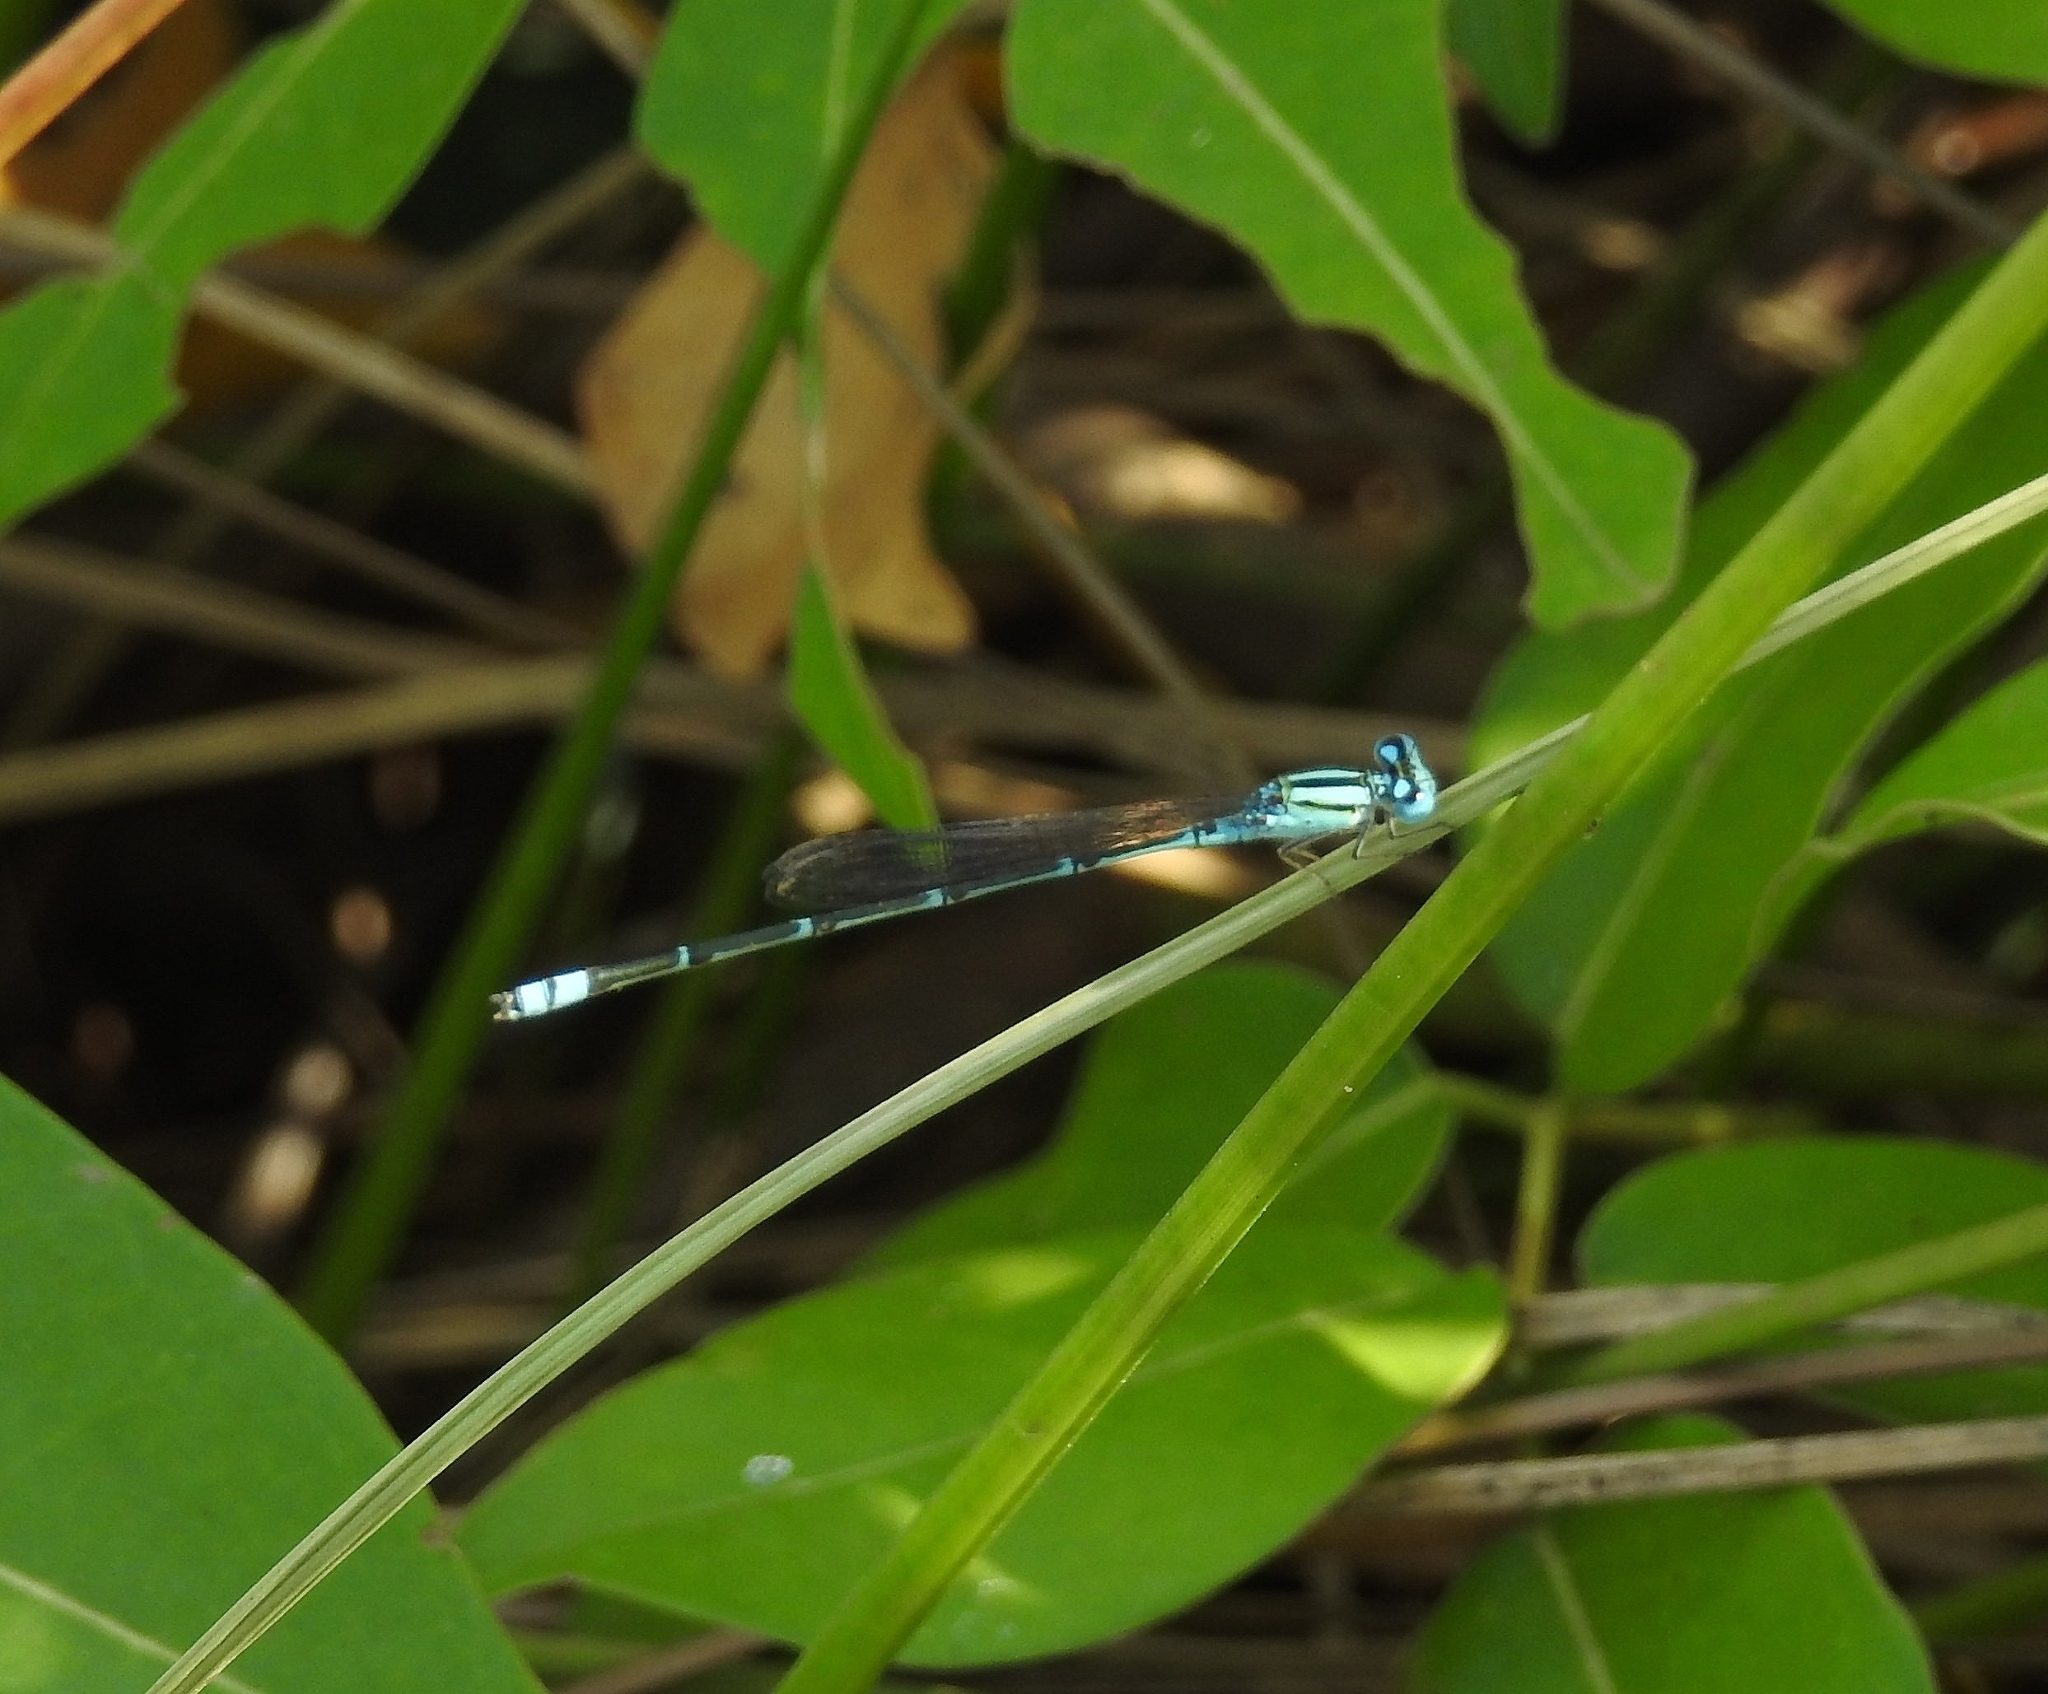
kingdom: Animalia
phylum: Arthropoda
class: Insecta
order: Odonata
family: Coenagrionidae
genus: Pseudagrion
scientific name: Pseudagrion microcephalum
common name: Blue riverdamsel
